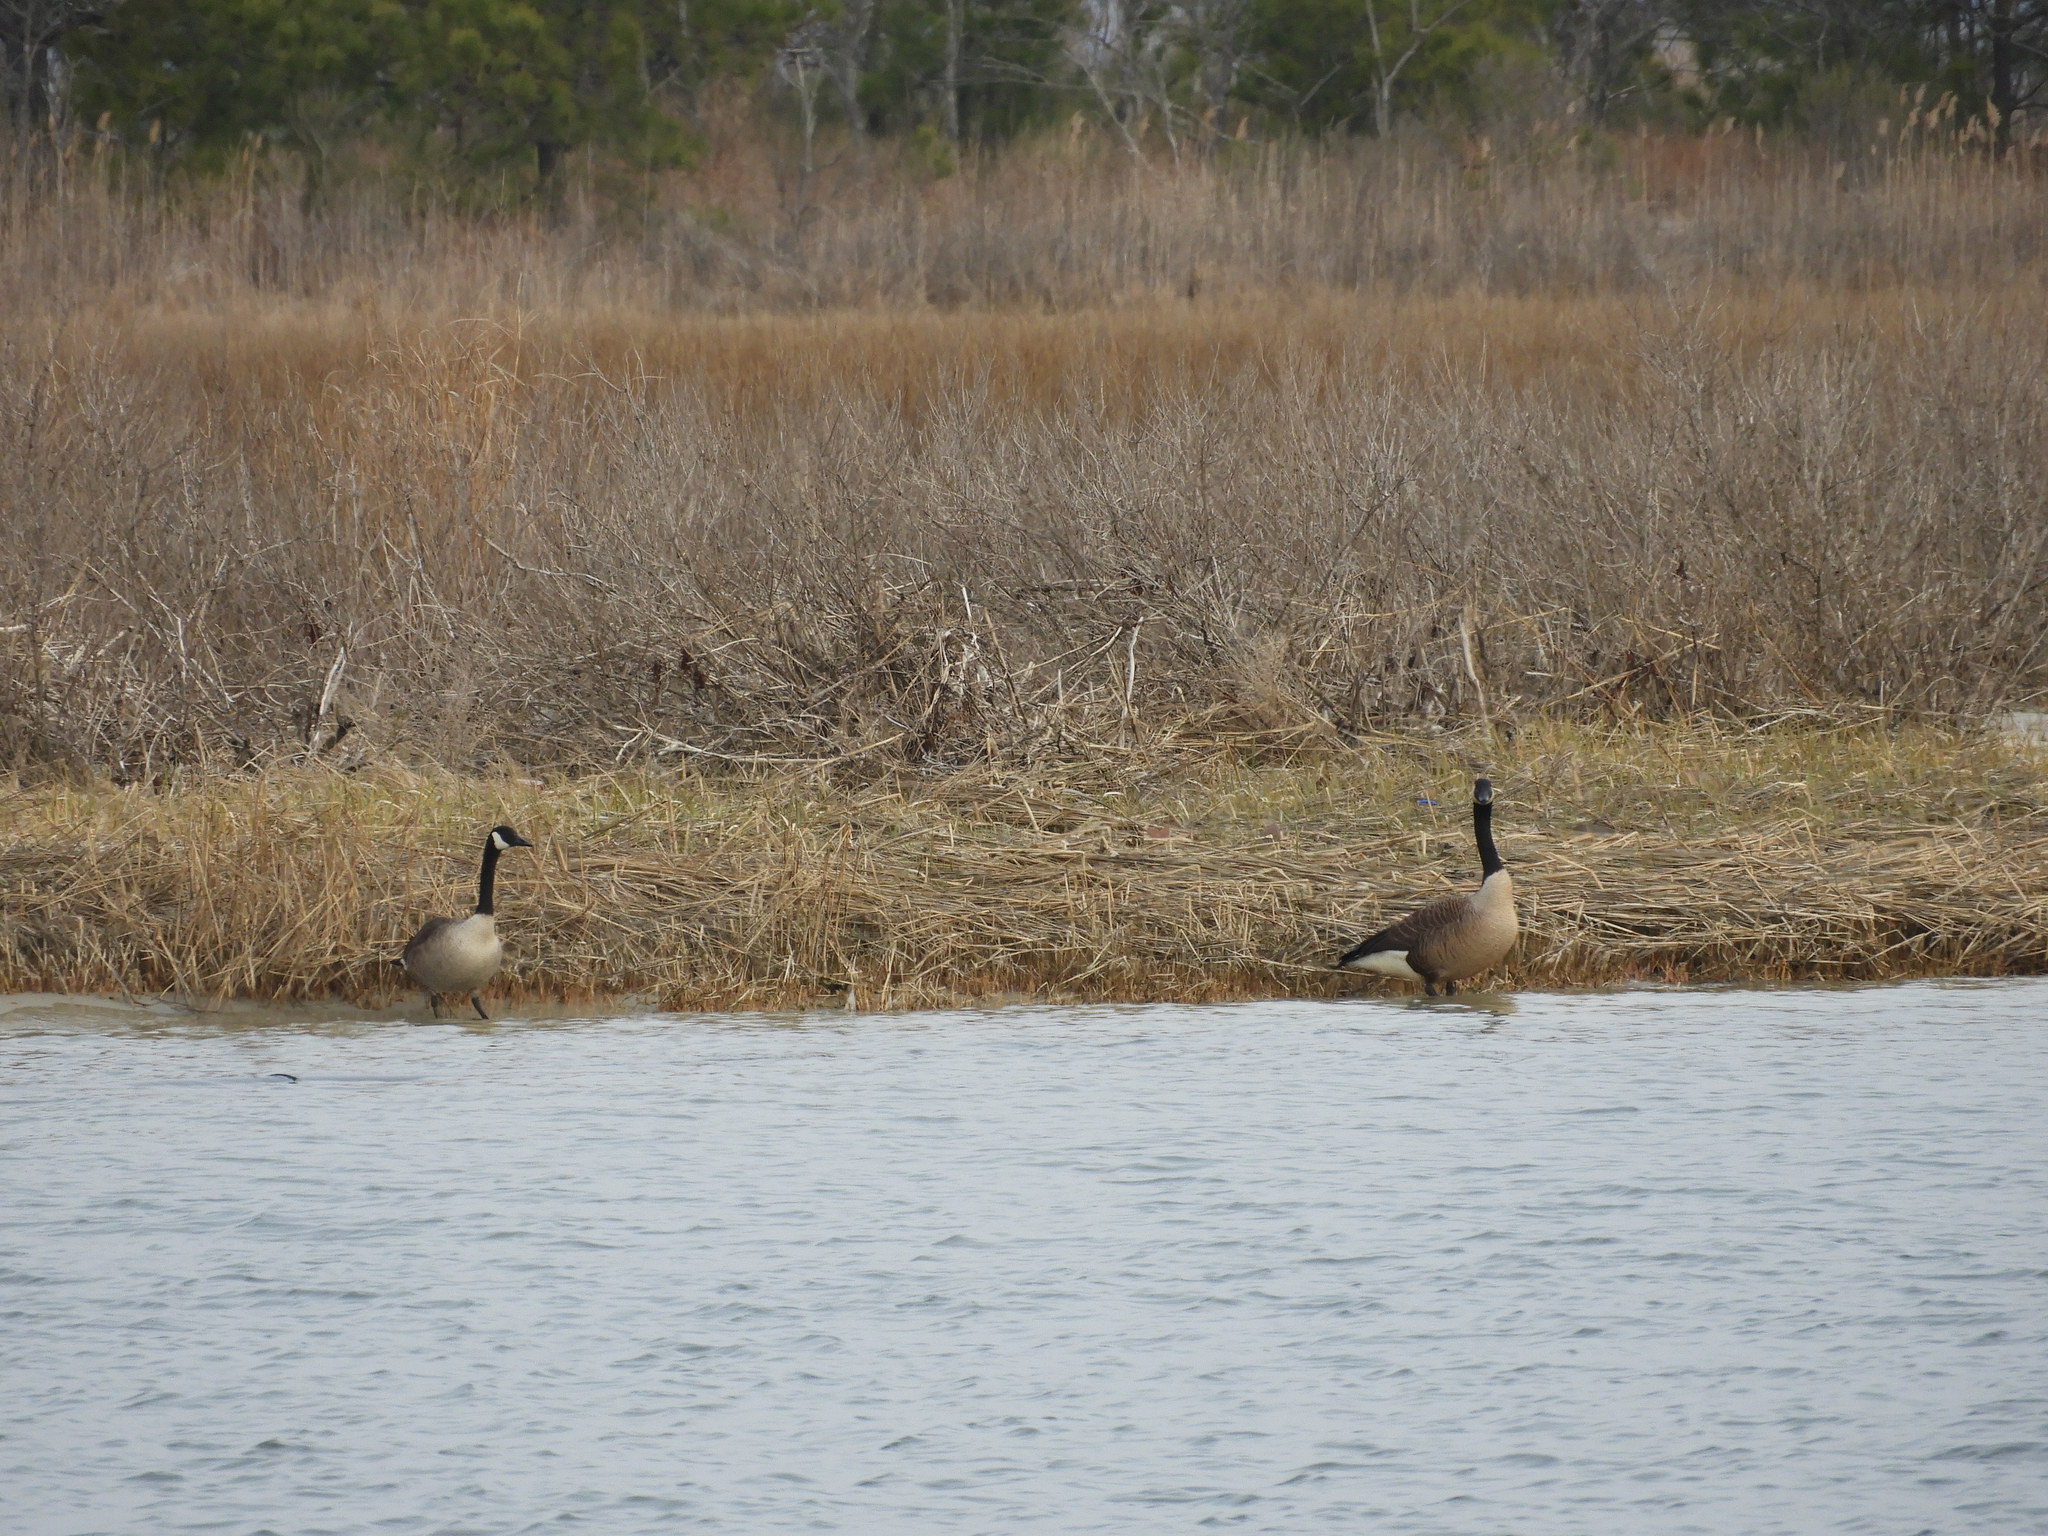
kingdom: Animalia
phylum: Chordata
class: Aves
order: Anseriformes
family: Anatidae
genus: Branta
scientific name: Branta canadensis
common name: Canada goose
